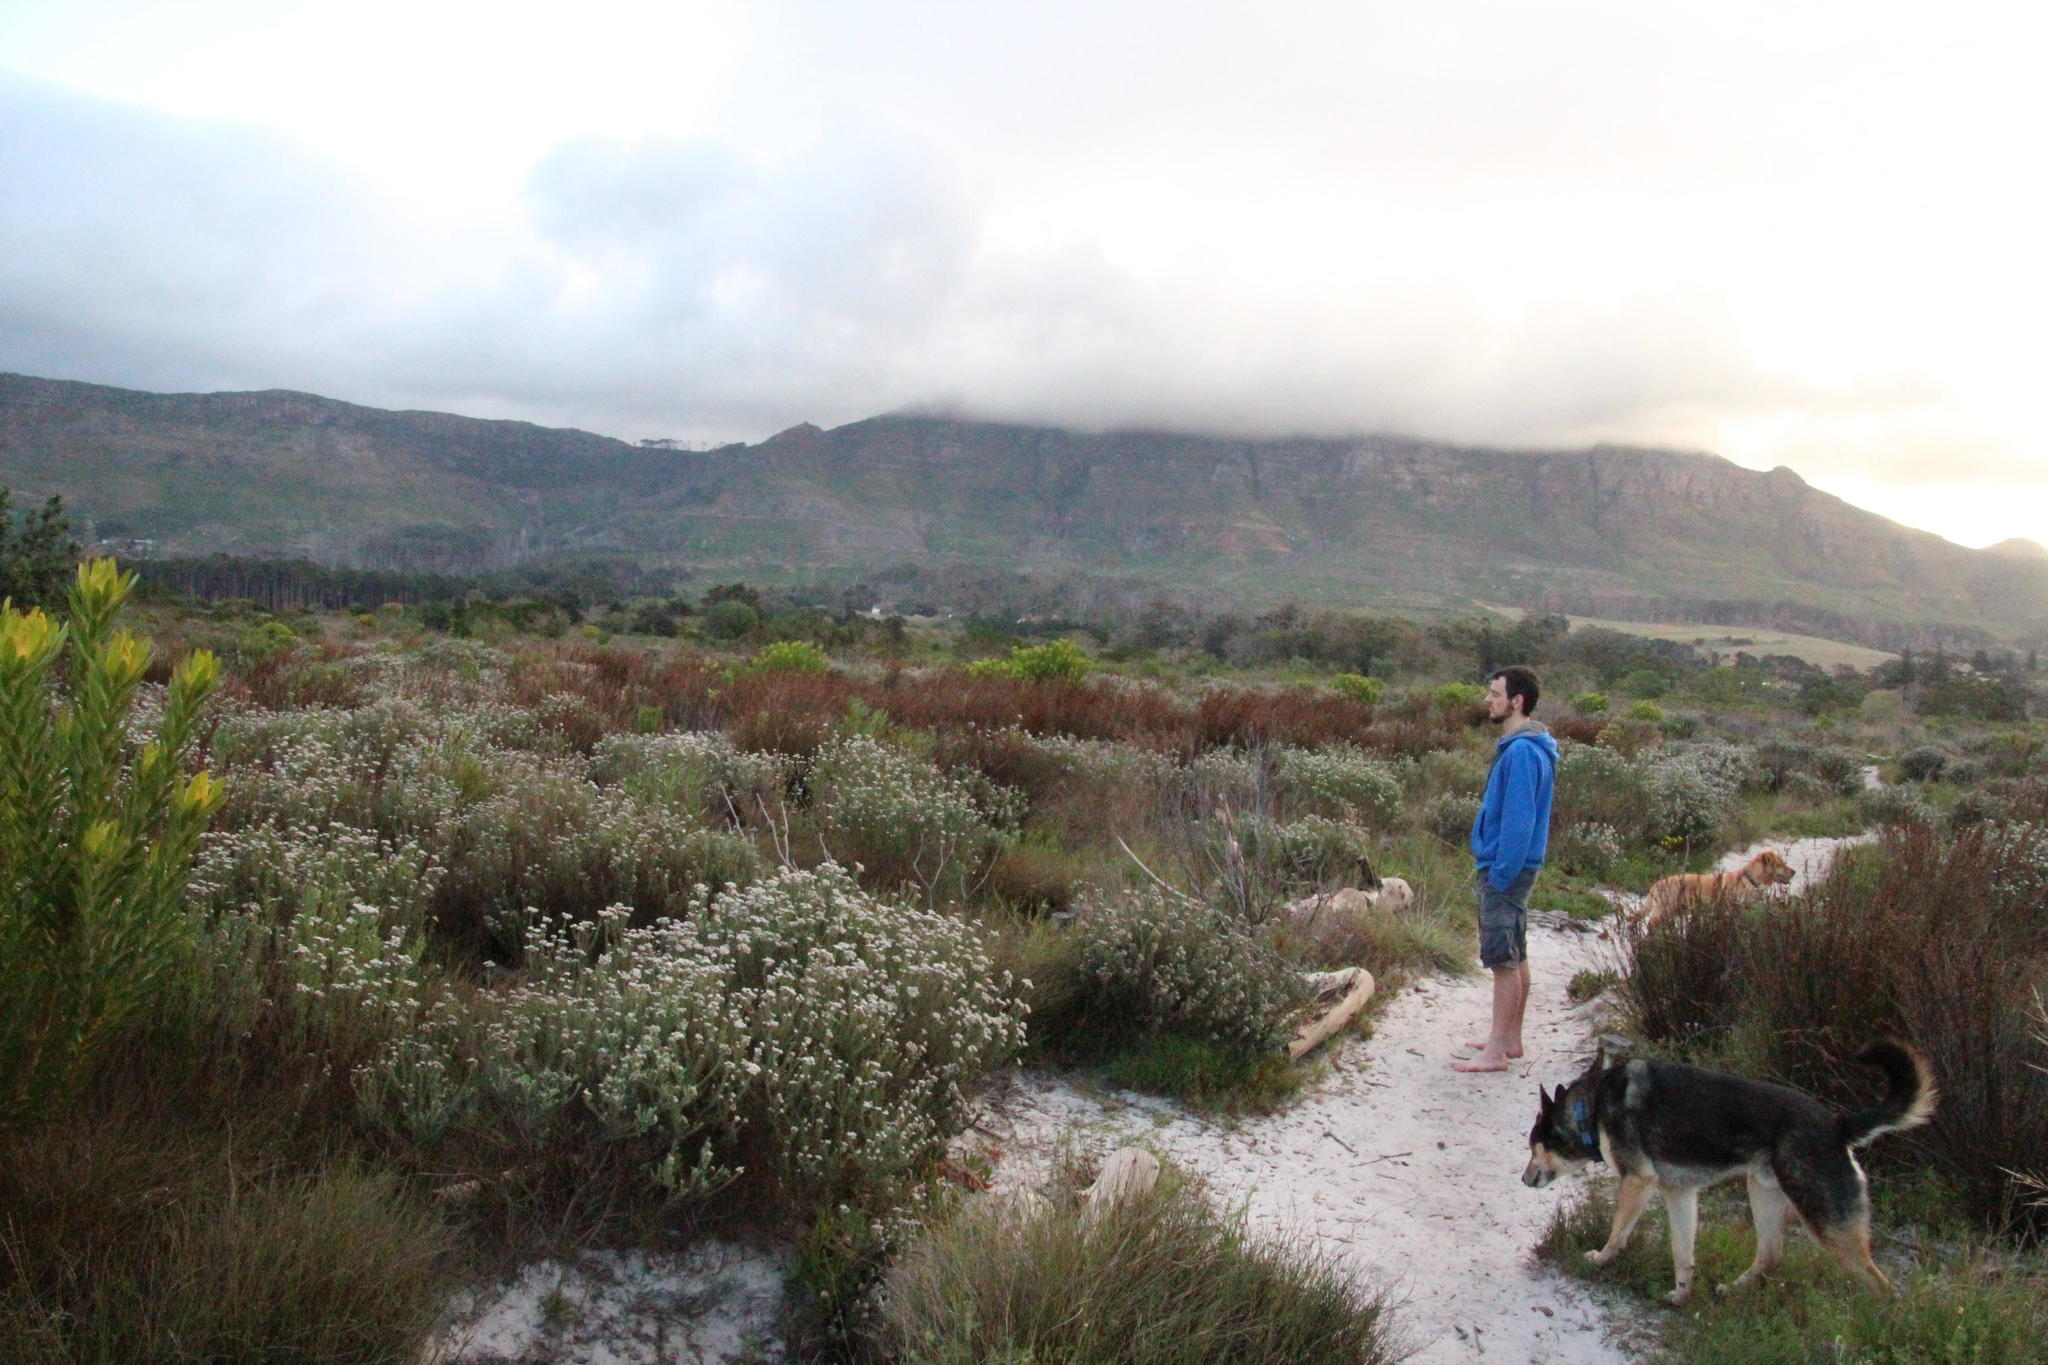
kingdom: Plantae
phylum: Tracheophyta
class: Liliopsida
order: Poales
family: Restionaceae
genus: Restio
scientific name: Restio bifurcus
